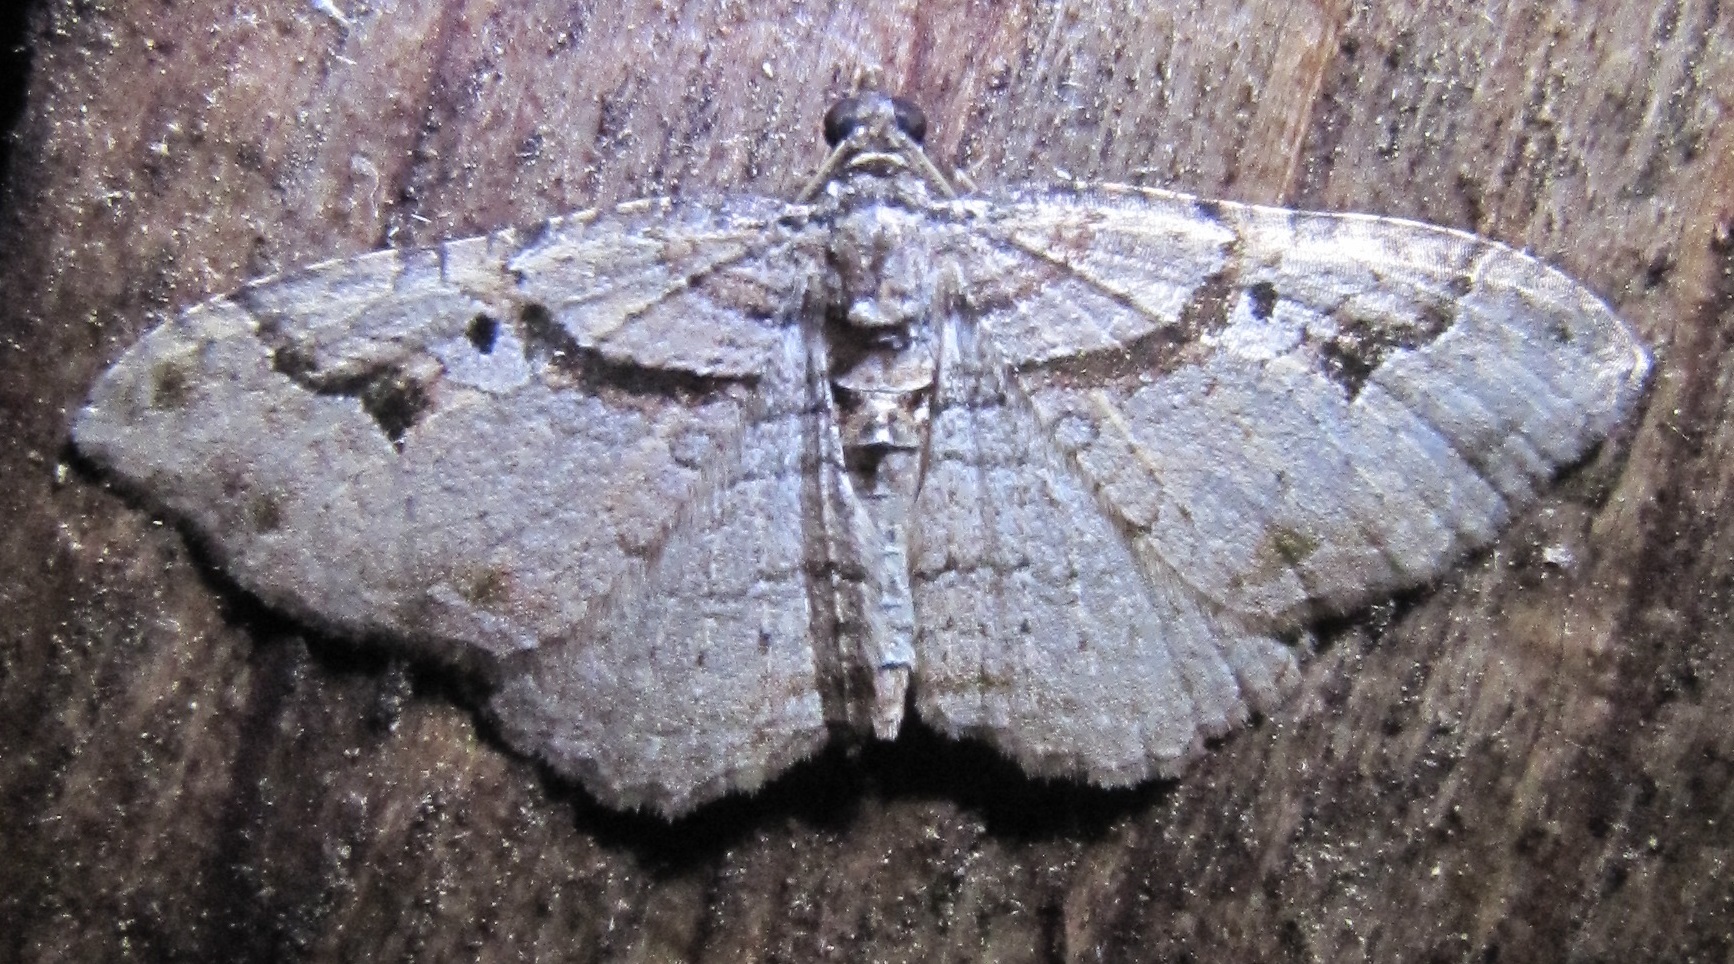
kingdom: Animalia
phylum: Arthropoda
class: Insecta
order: Lepidoptera
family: Geometridae
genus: Costaconvexa
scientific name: Costaconvexa centrostrigaria
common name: Bent-line carpet
